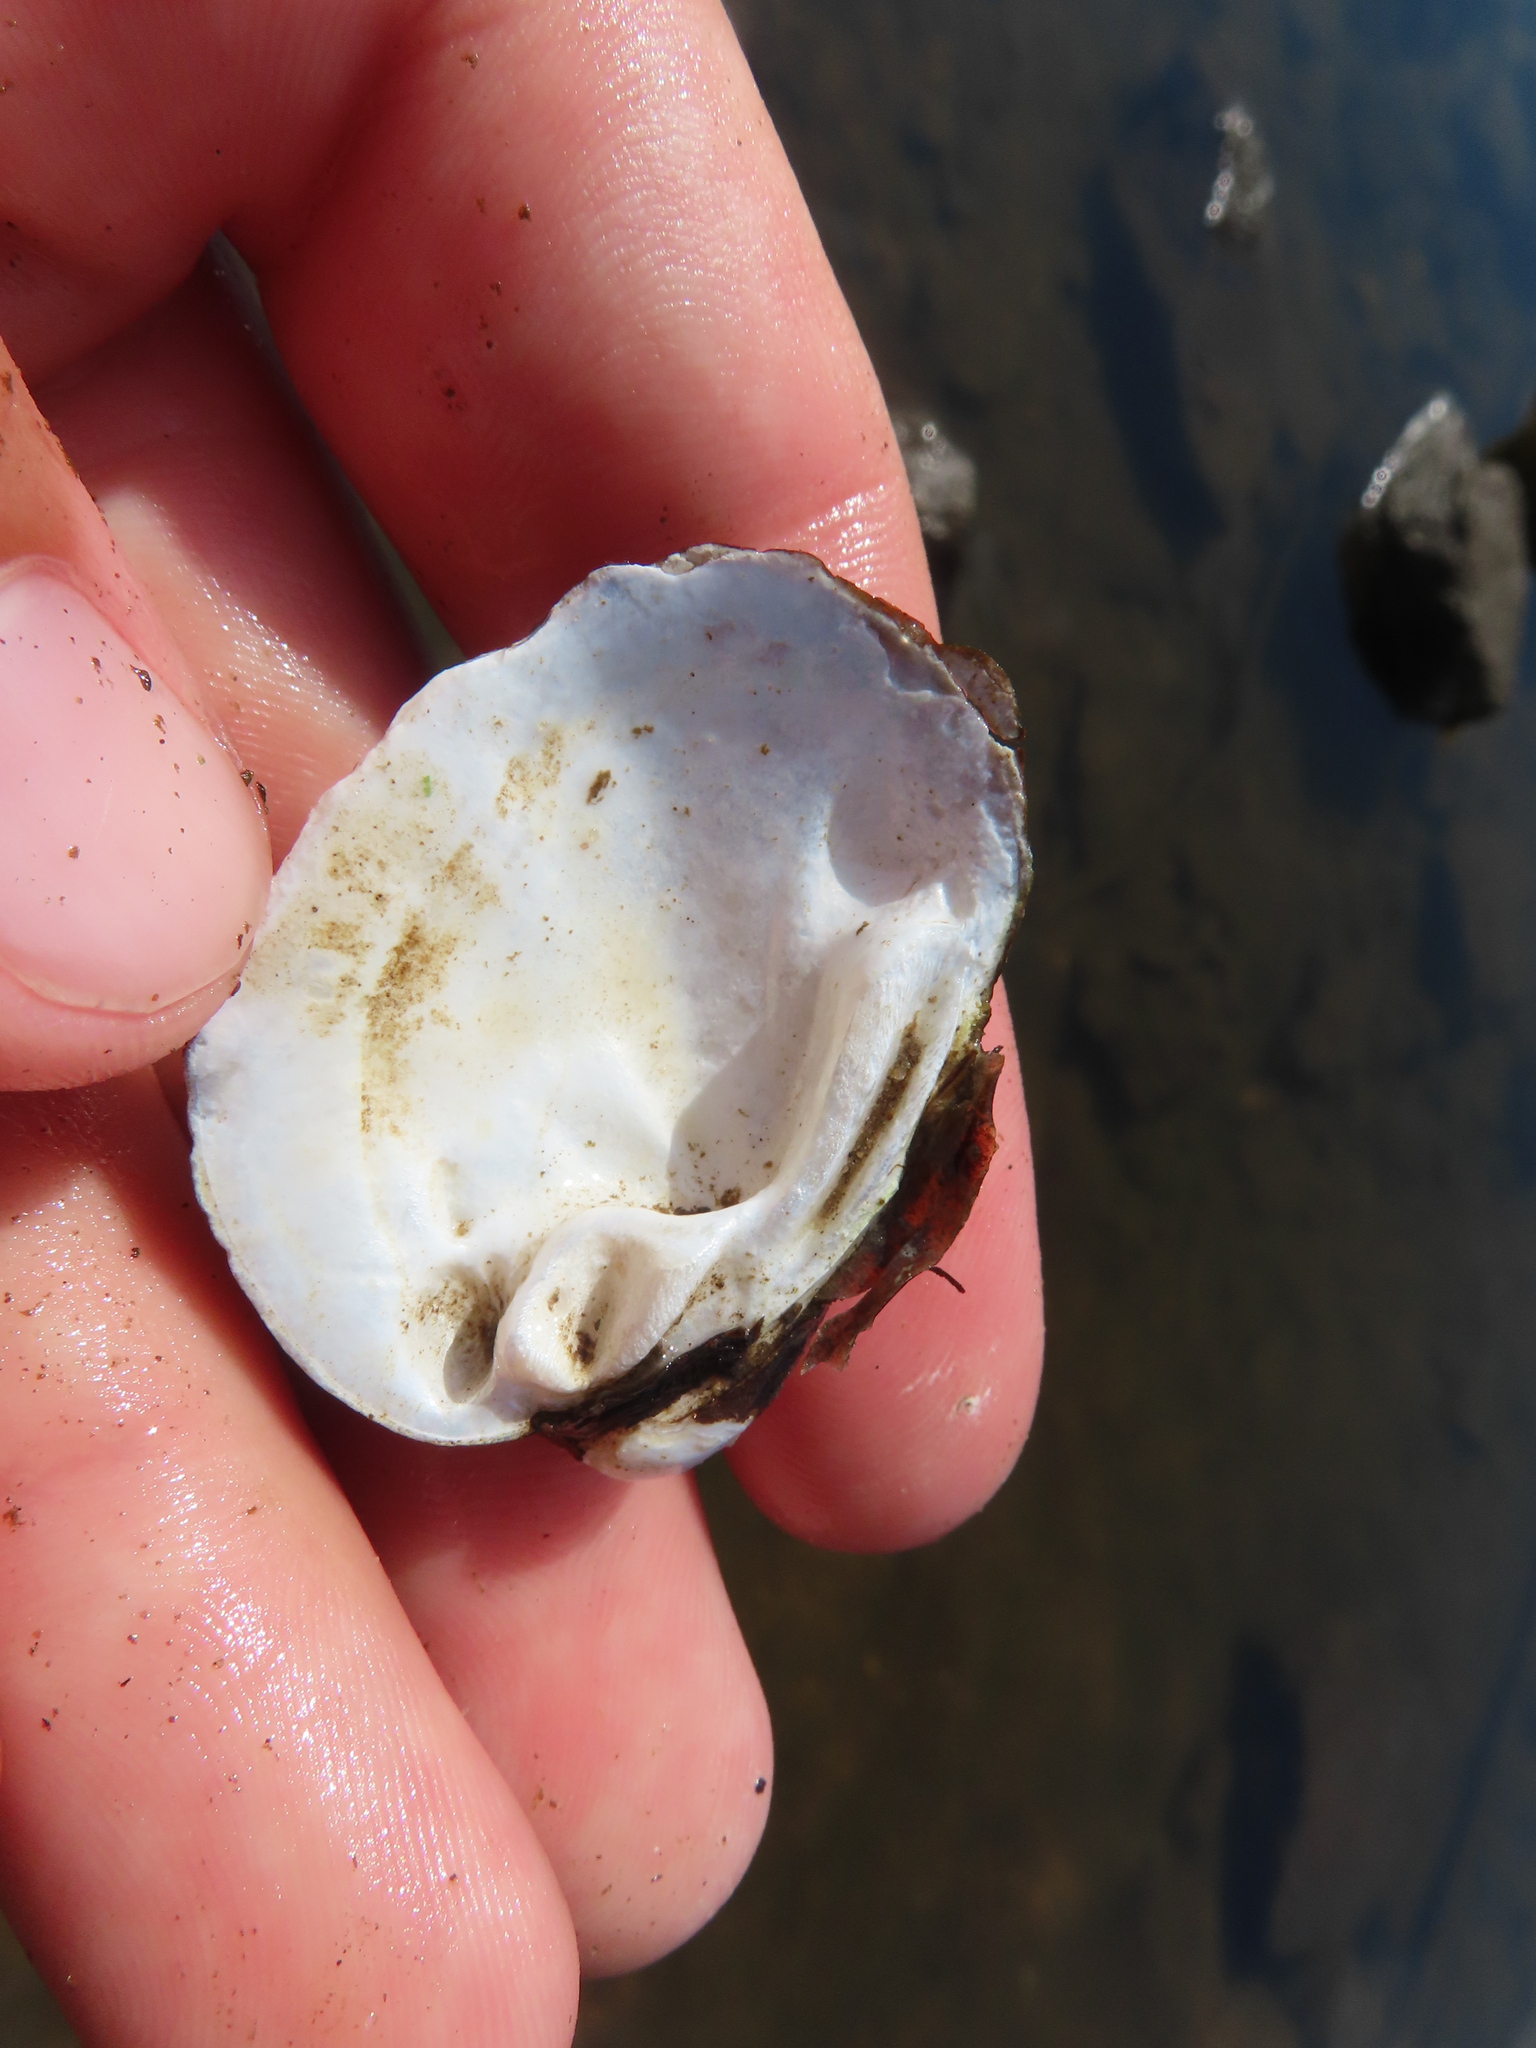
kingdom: Animalia
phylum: Mollusca
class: Bivalvia
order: Unionida
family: Unionidae
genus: Obovaria
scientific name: Obovaria olivaria
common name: Hickorynut
